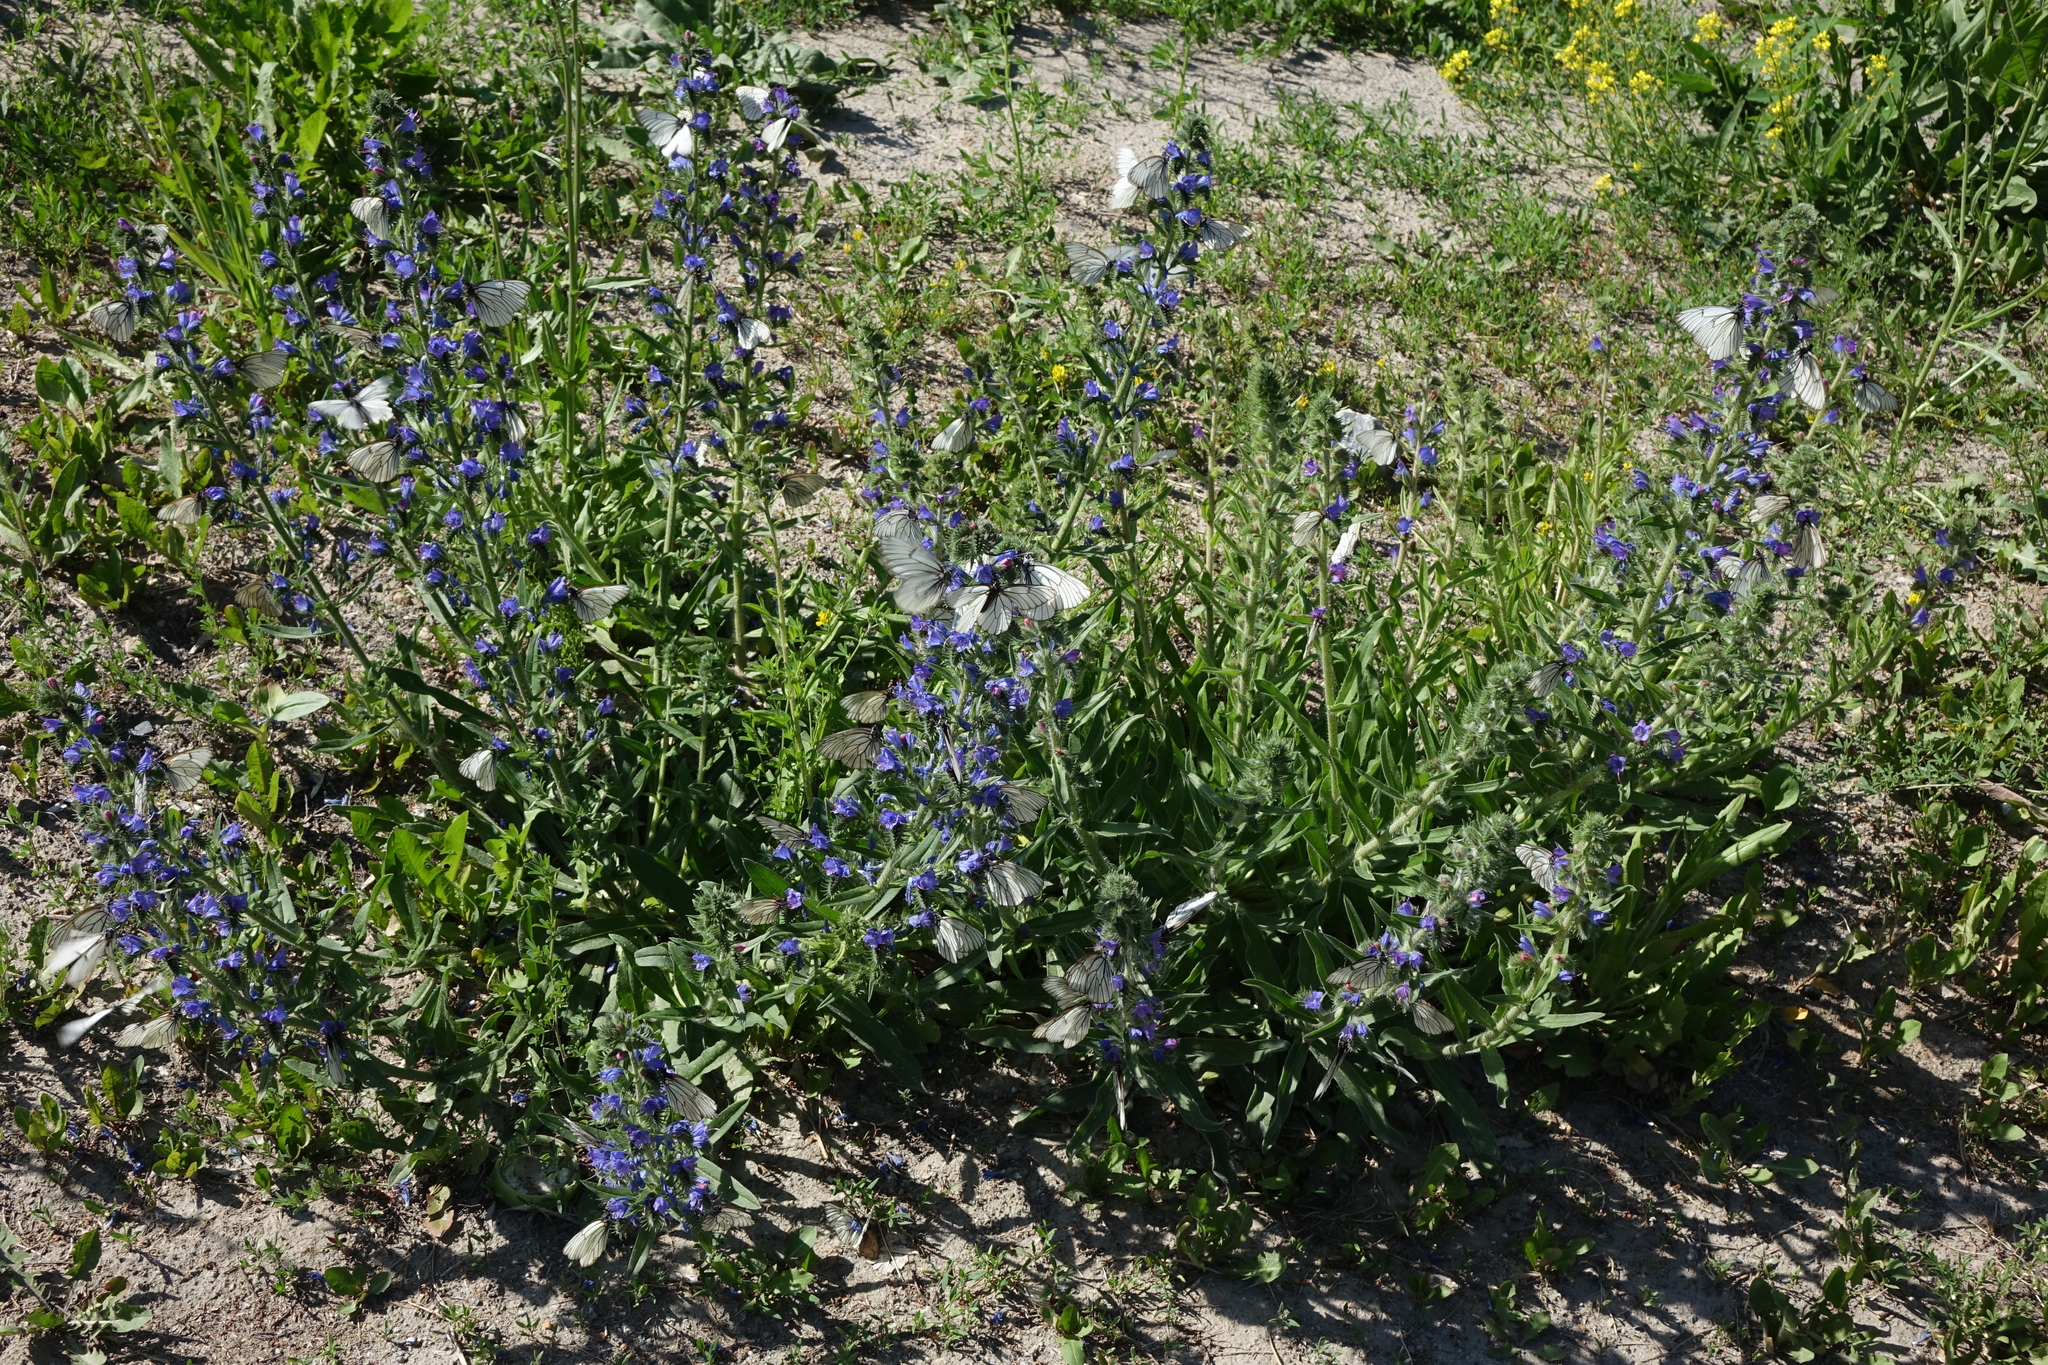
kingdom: Plantae
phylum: Tracheophyta
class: Magnoliopsida
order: Boraginales
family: Boraginaceae
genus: Echium
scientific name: Echium vulgare
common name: Common viper's bugloss
